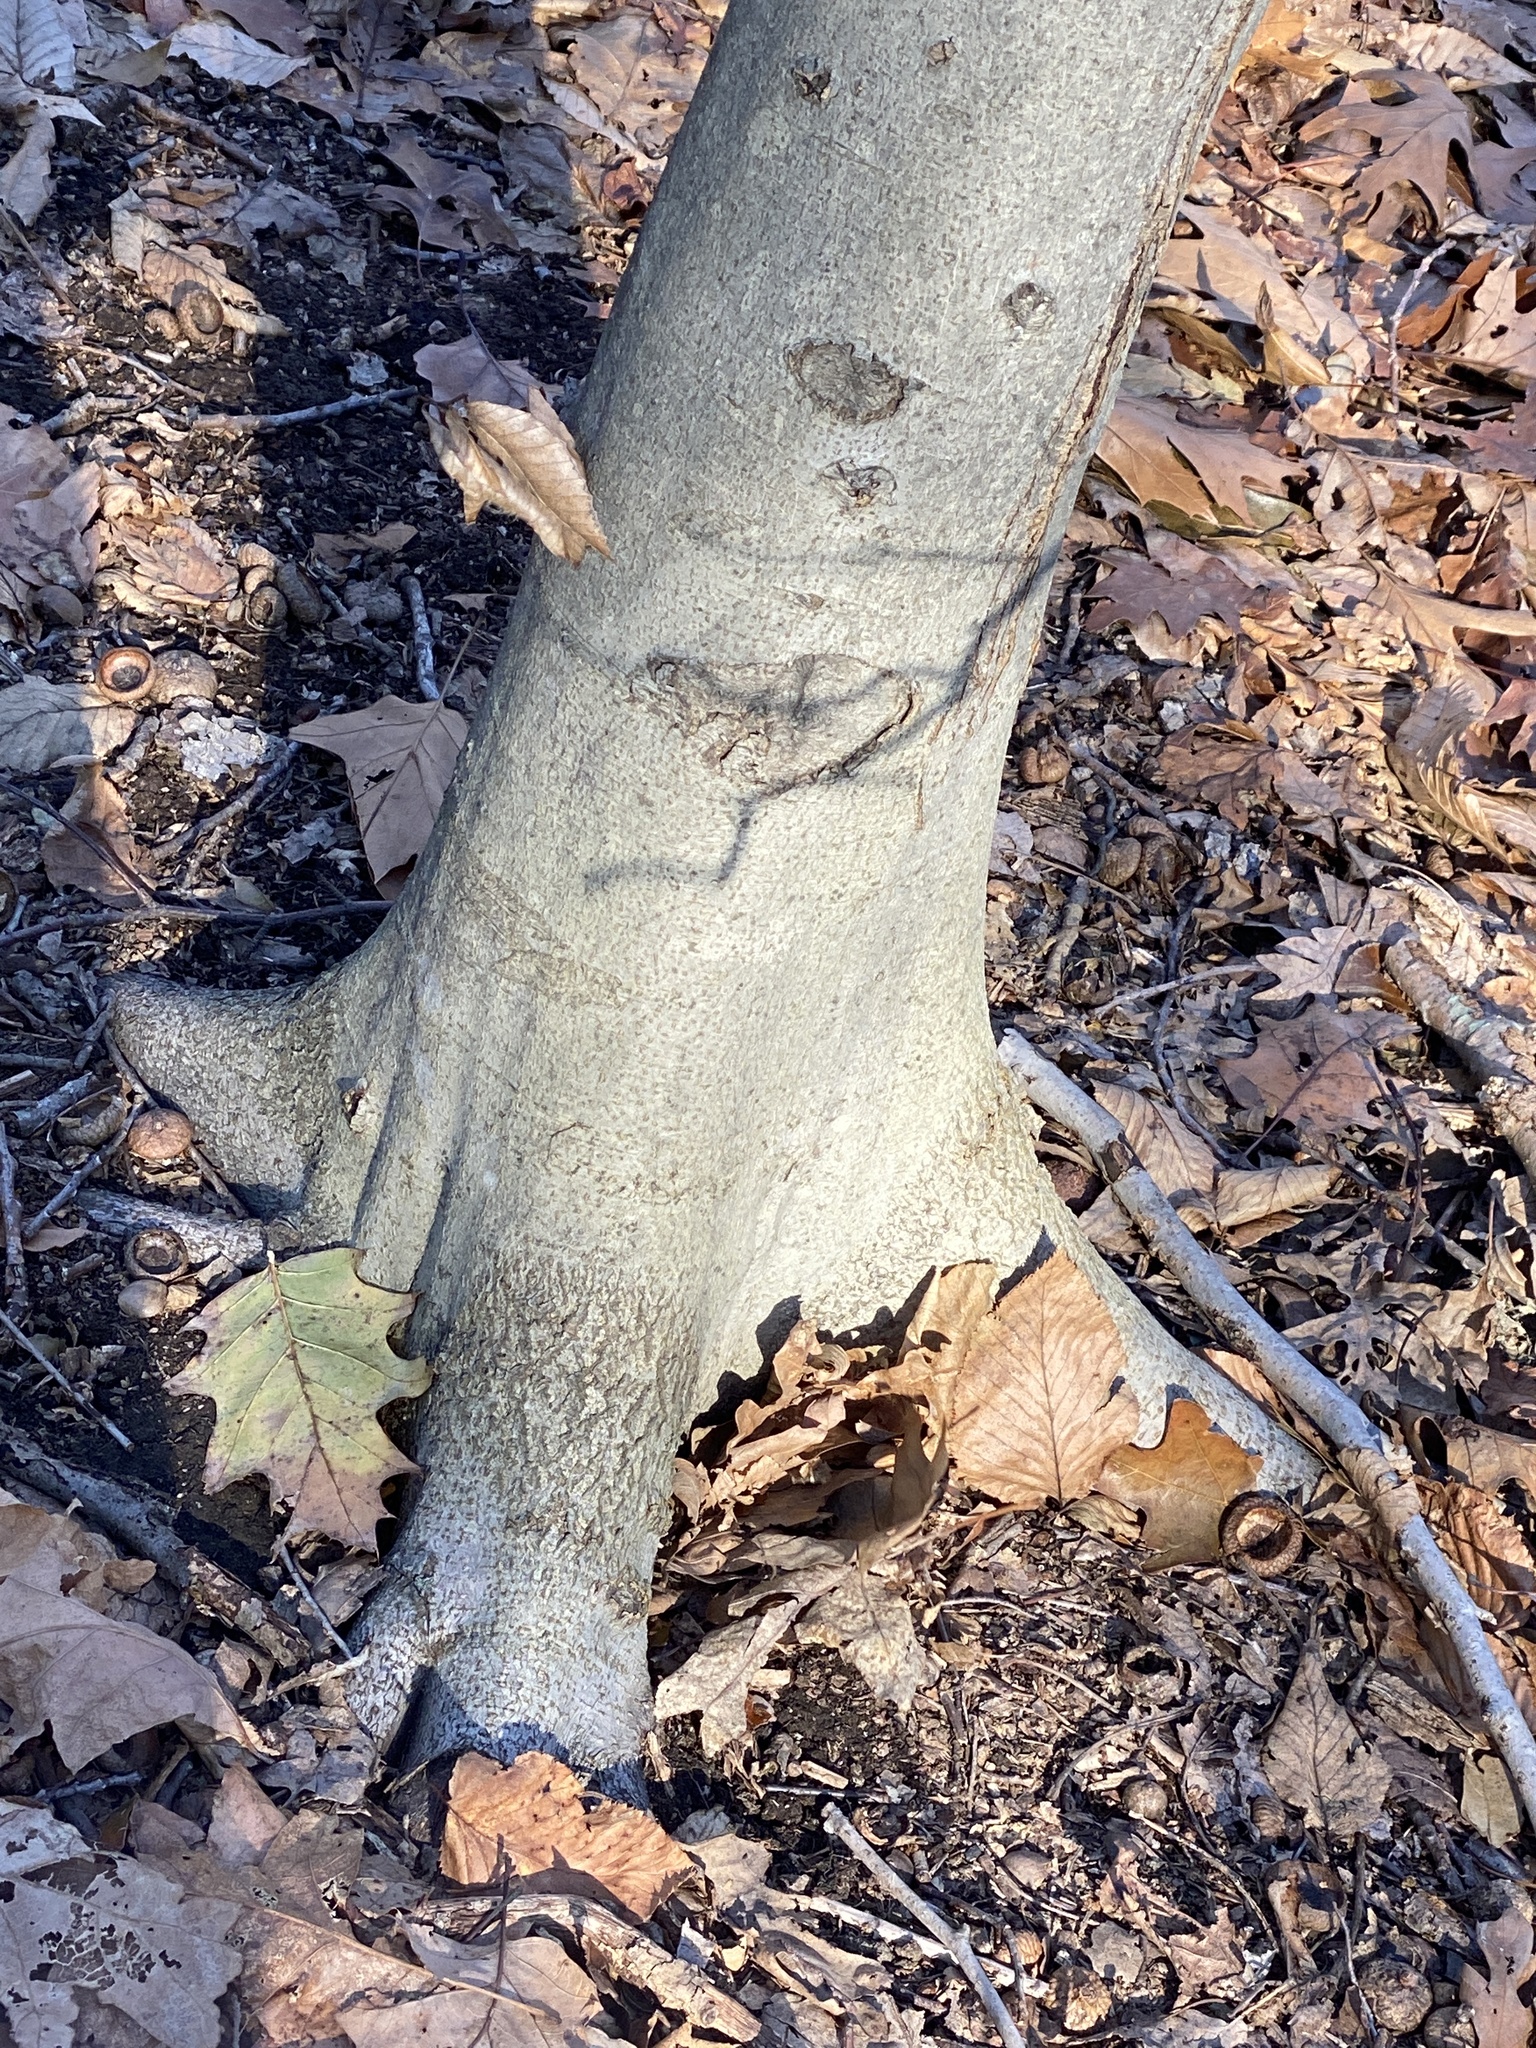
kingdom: Plantae
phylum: Tracheophyta
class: Magnoliopsida
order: Fagales
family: Fagaceae
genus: Fagus
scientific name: Fagus grandifolia
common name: American beech
